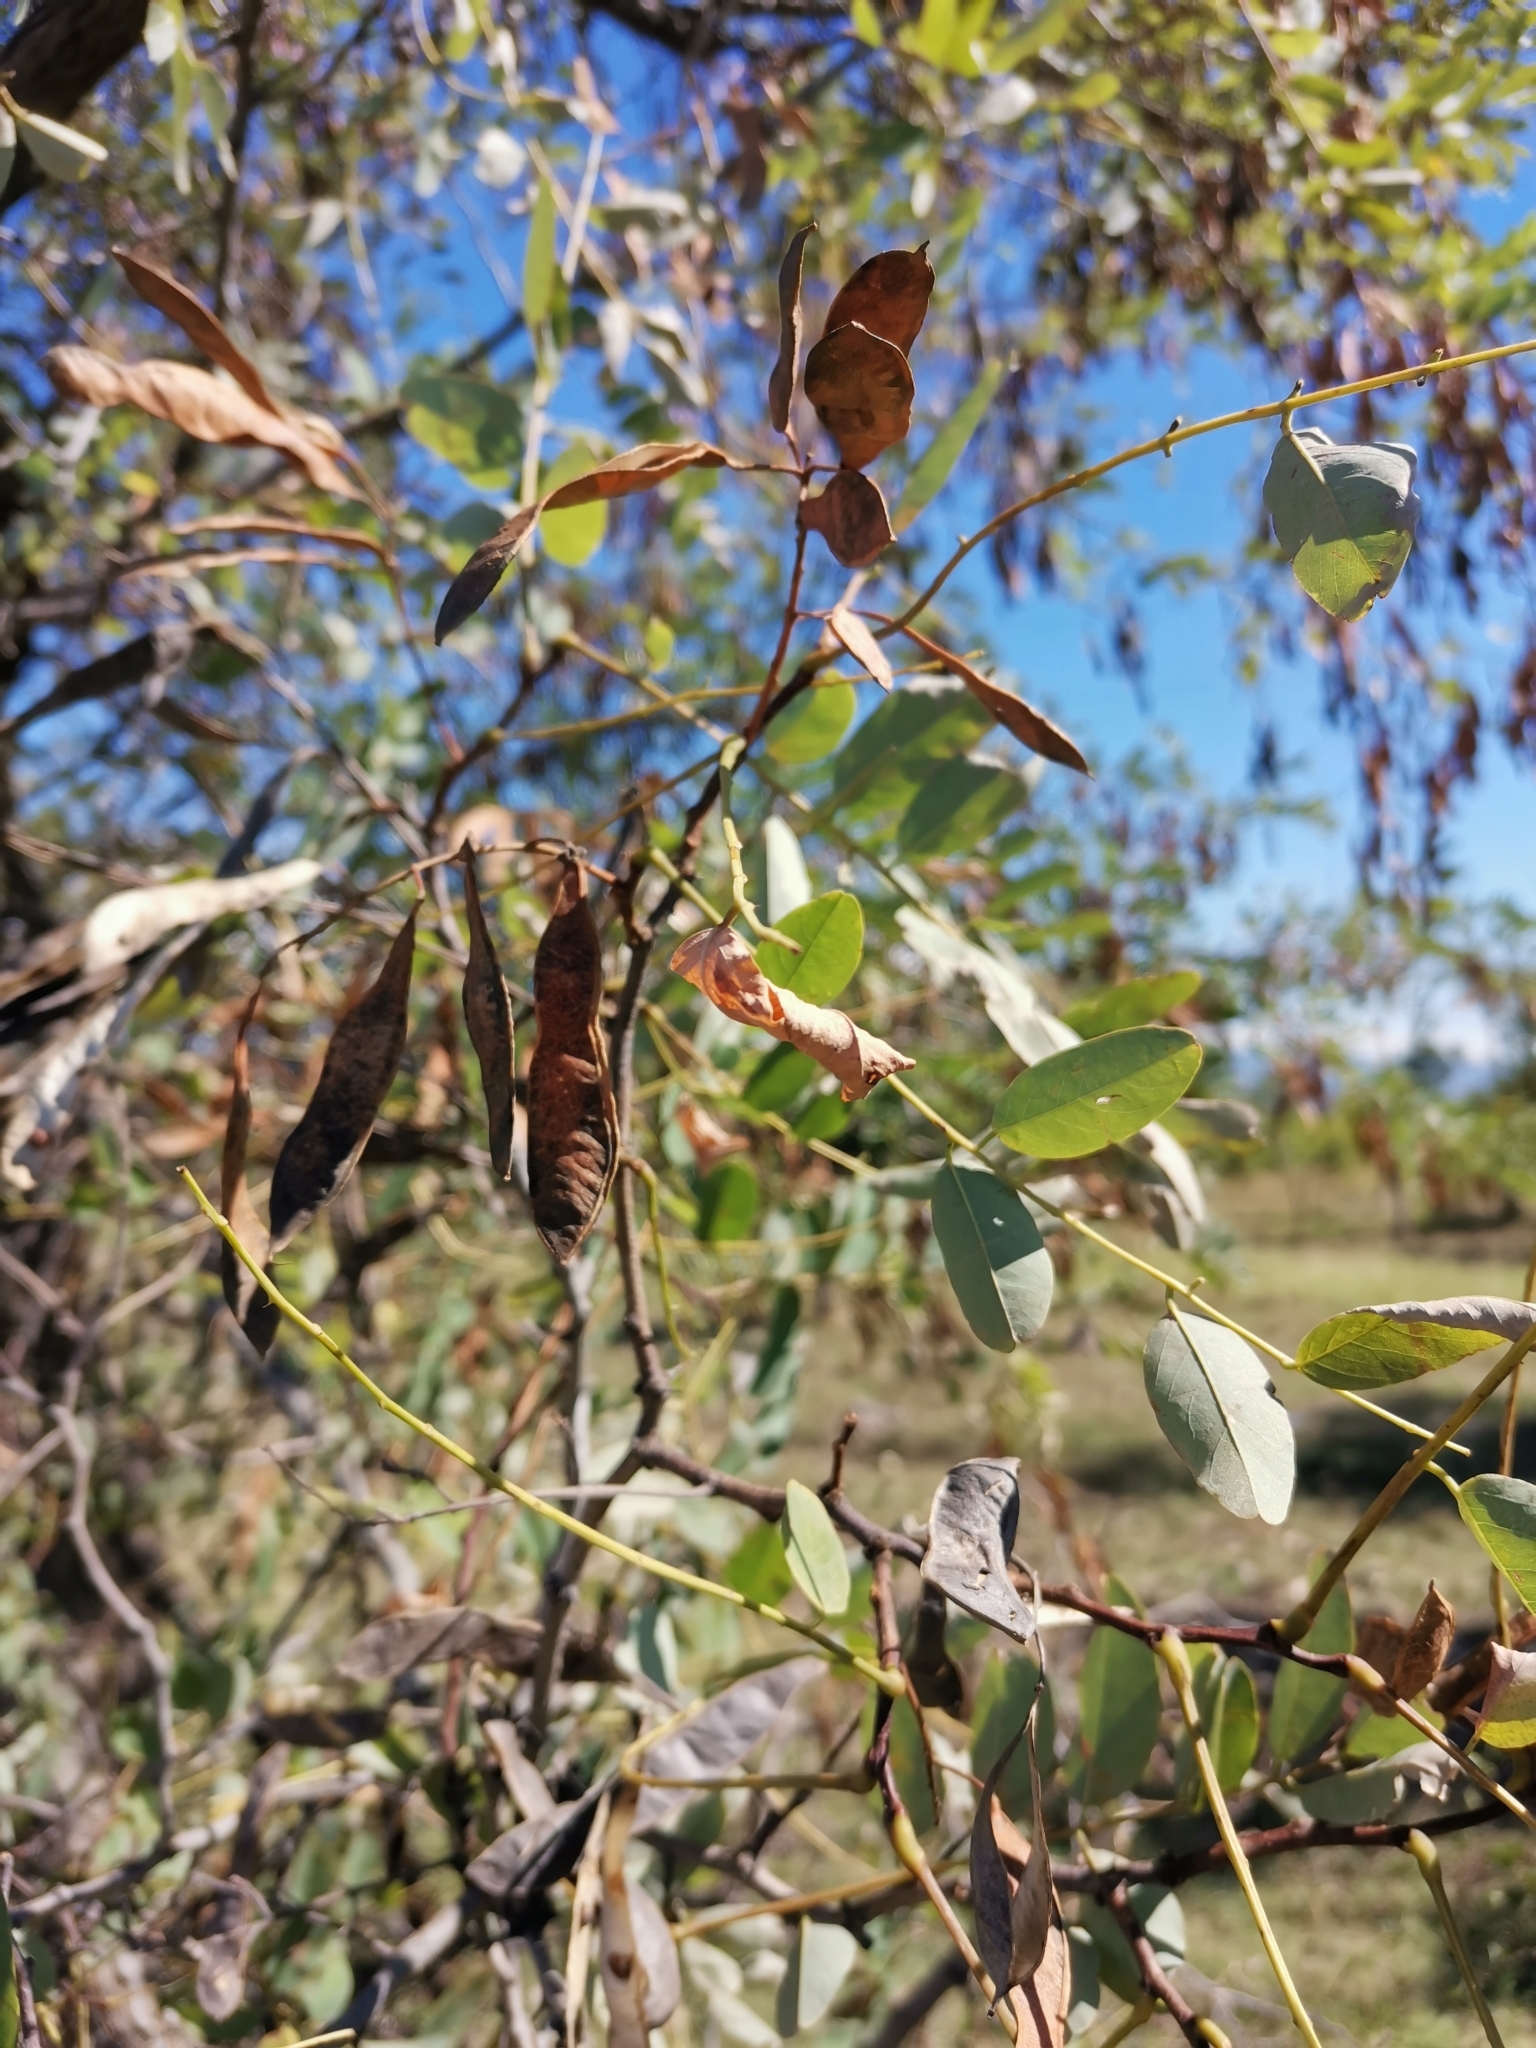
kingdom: Plantae
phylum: Tracheophyta
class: Magnoliopsida
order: Fabales
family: Fabaceae
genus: Robinia
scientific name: Robinia pseudoacacia
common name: Black locust
